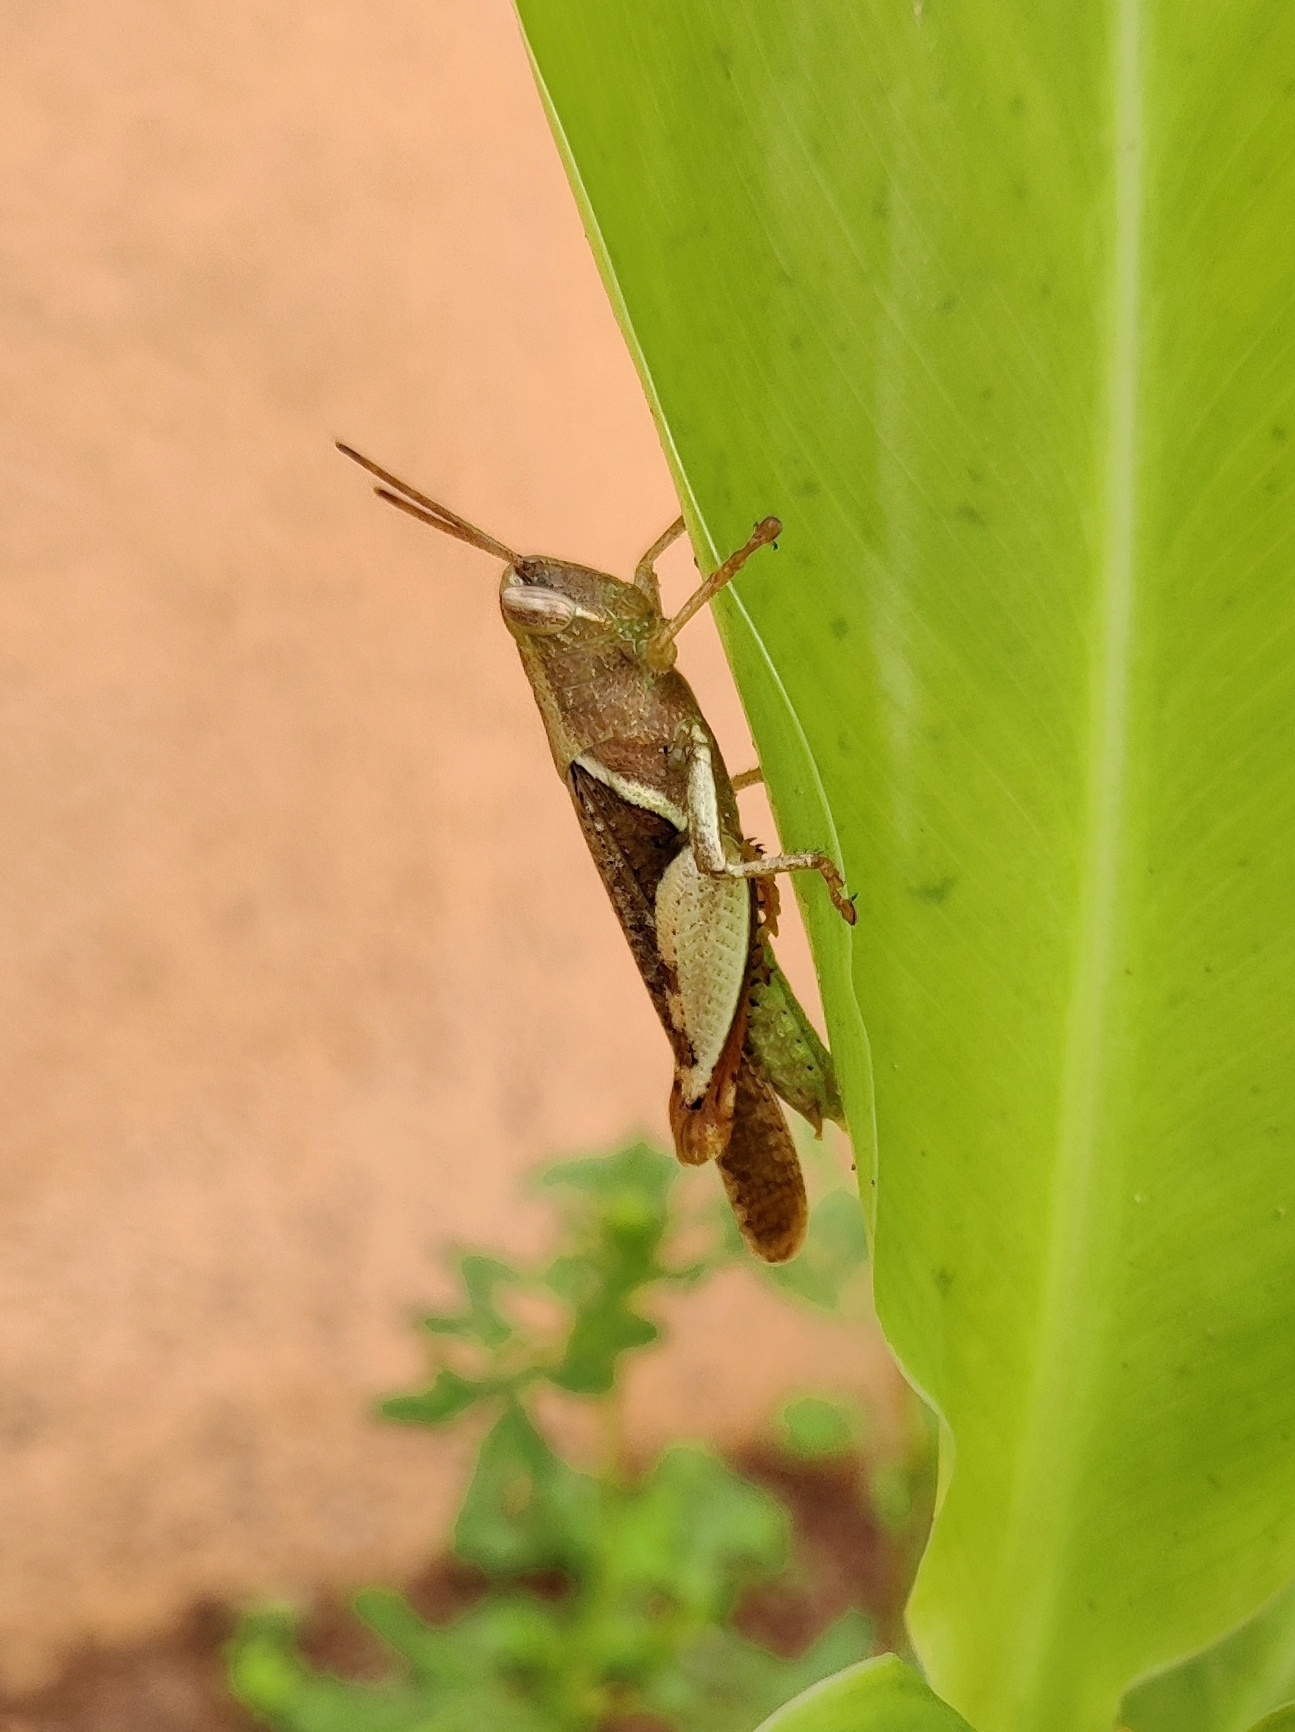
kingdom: Animalia
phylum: Arthropoda
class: Insecta
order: Orthoptera
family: Acrididae
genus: Diabolocatantops
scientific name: Diabolocatantops innotabilis
